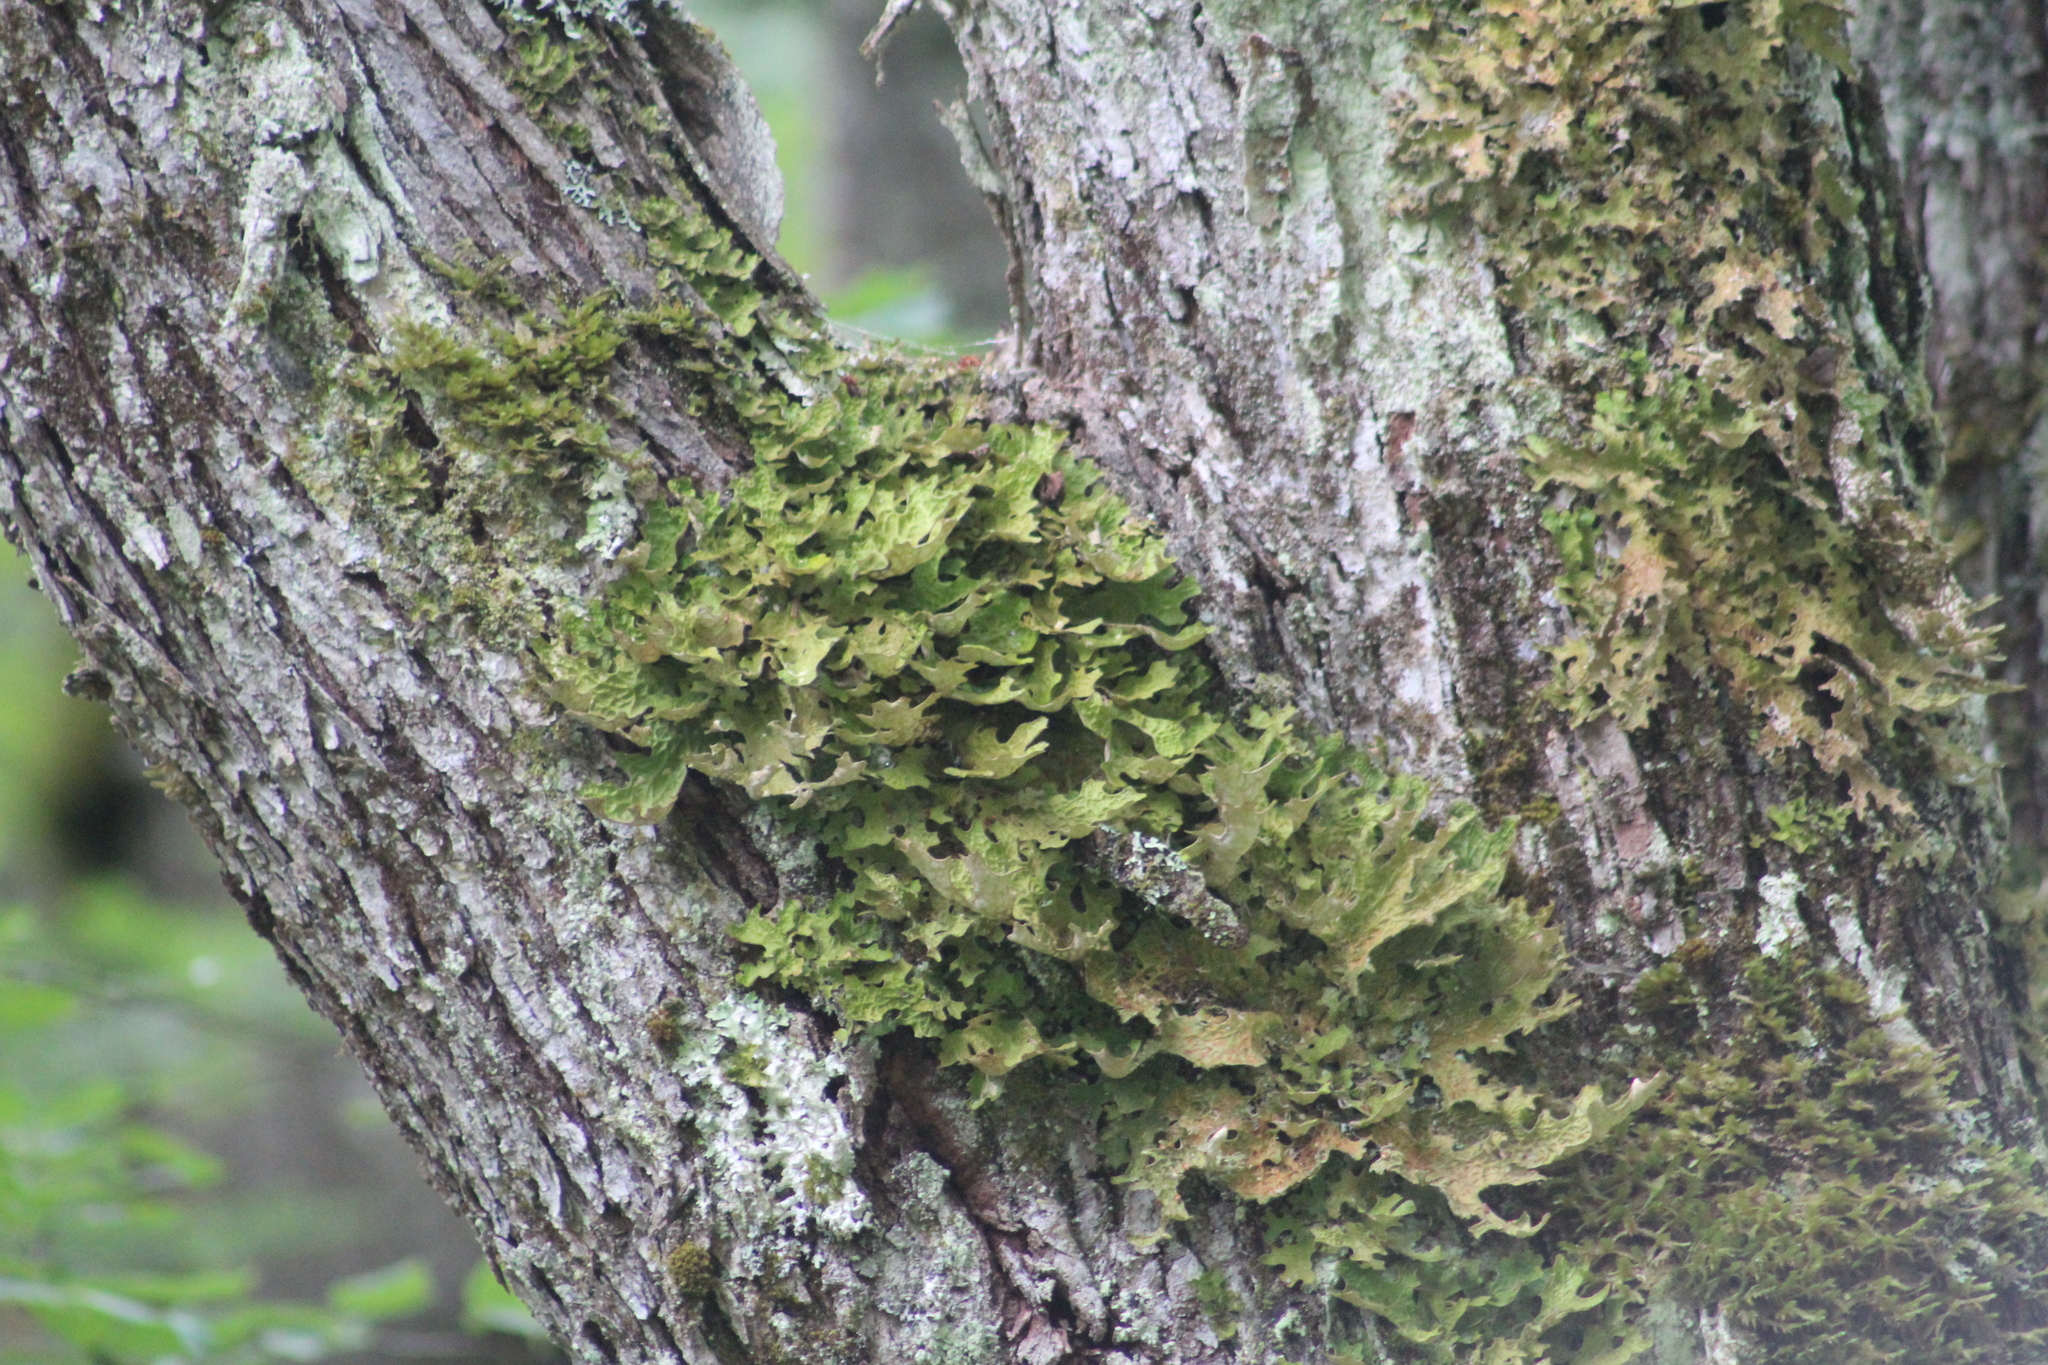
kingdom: Fungi
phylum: Ascomycota
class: Lecanoromycetes
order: Peltigerales
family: Lobariaceae
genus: Lobaria
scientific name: Lobaria pulmonaria
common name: Lungwort
